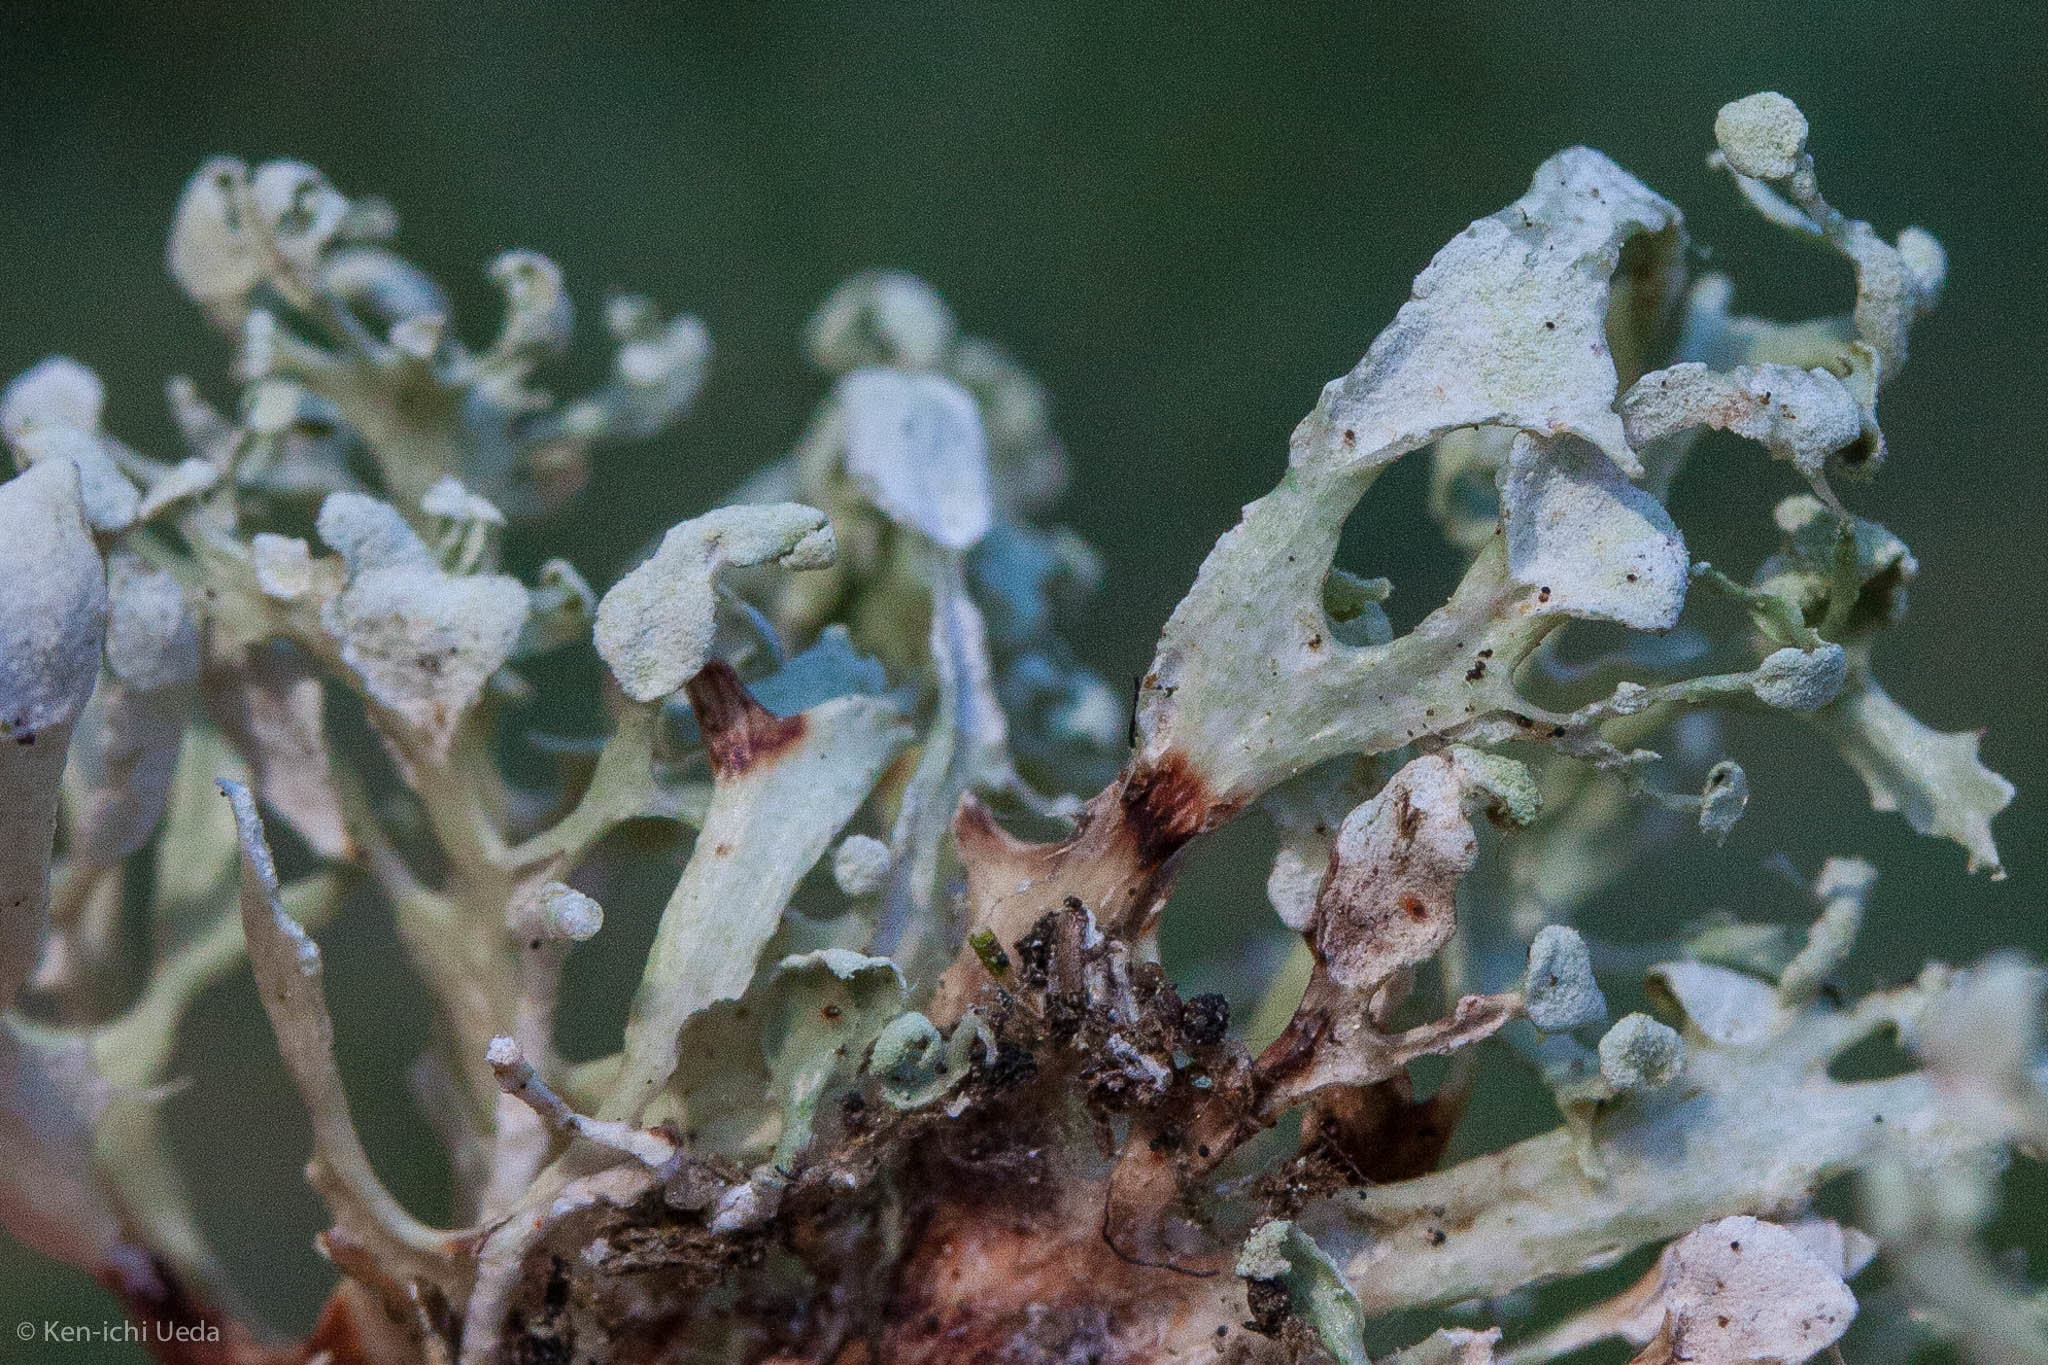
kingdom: Fungi
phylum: Ascomycota
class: Lecanoromycetes
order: Lecanorales
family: Ramalinaceae
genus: Ramalina
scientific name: Ramalina pollinaria
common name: Powdery twig lichen
